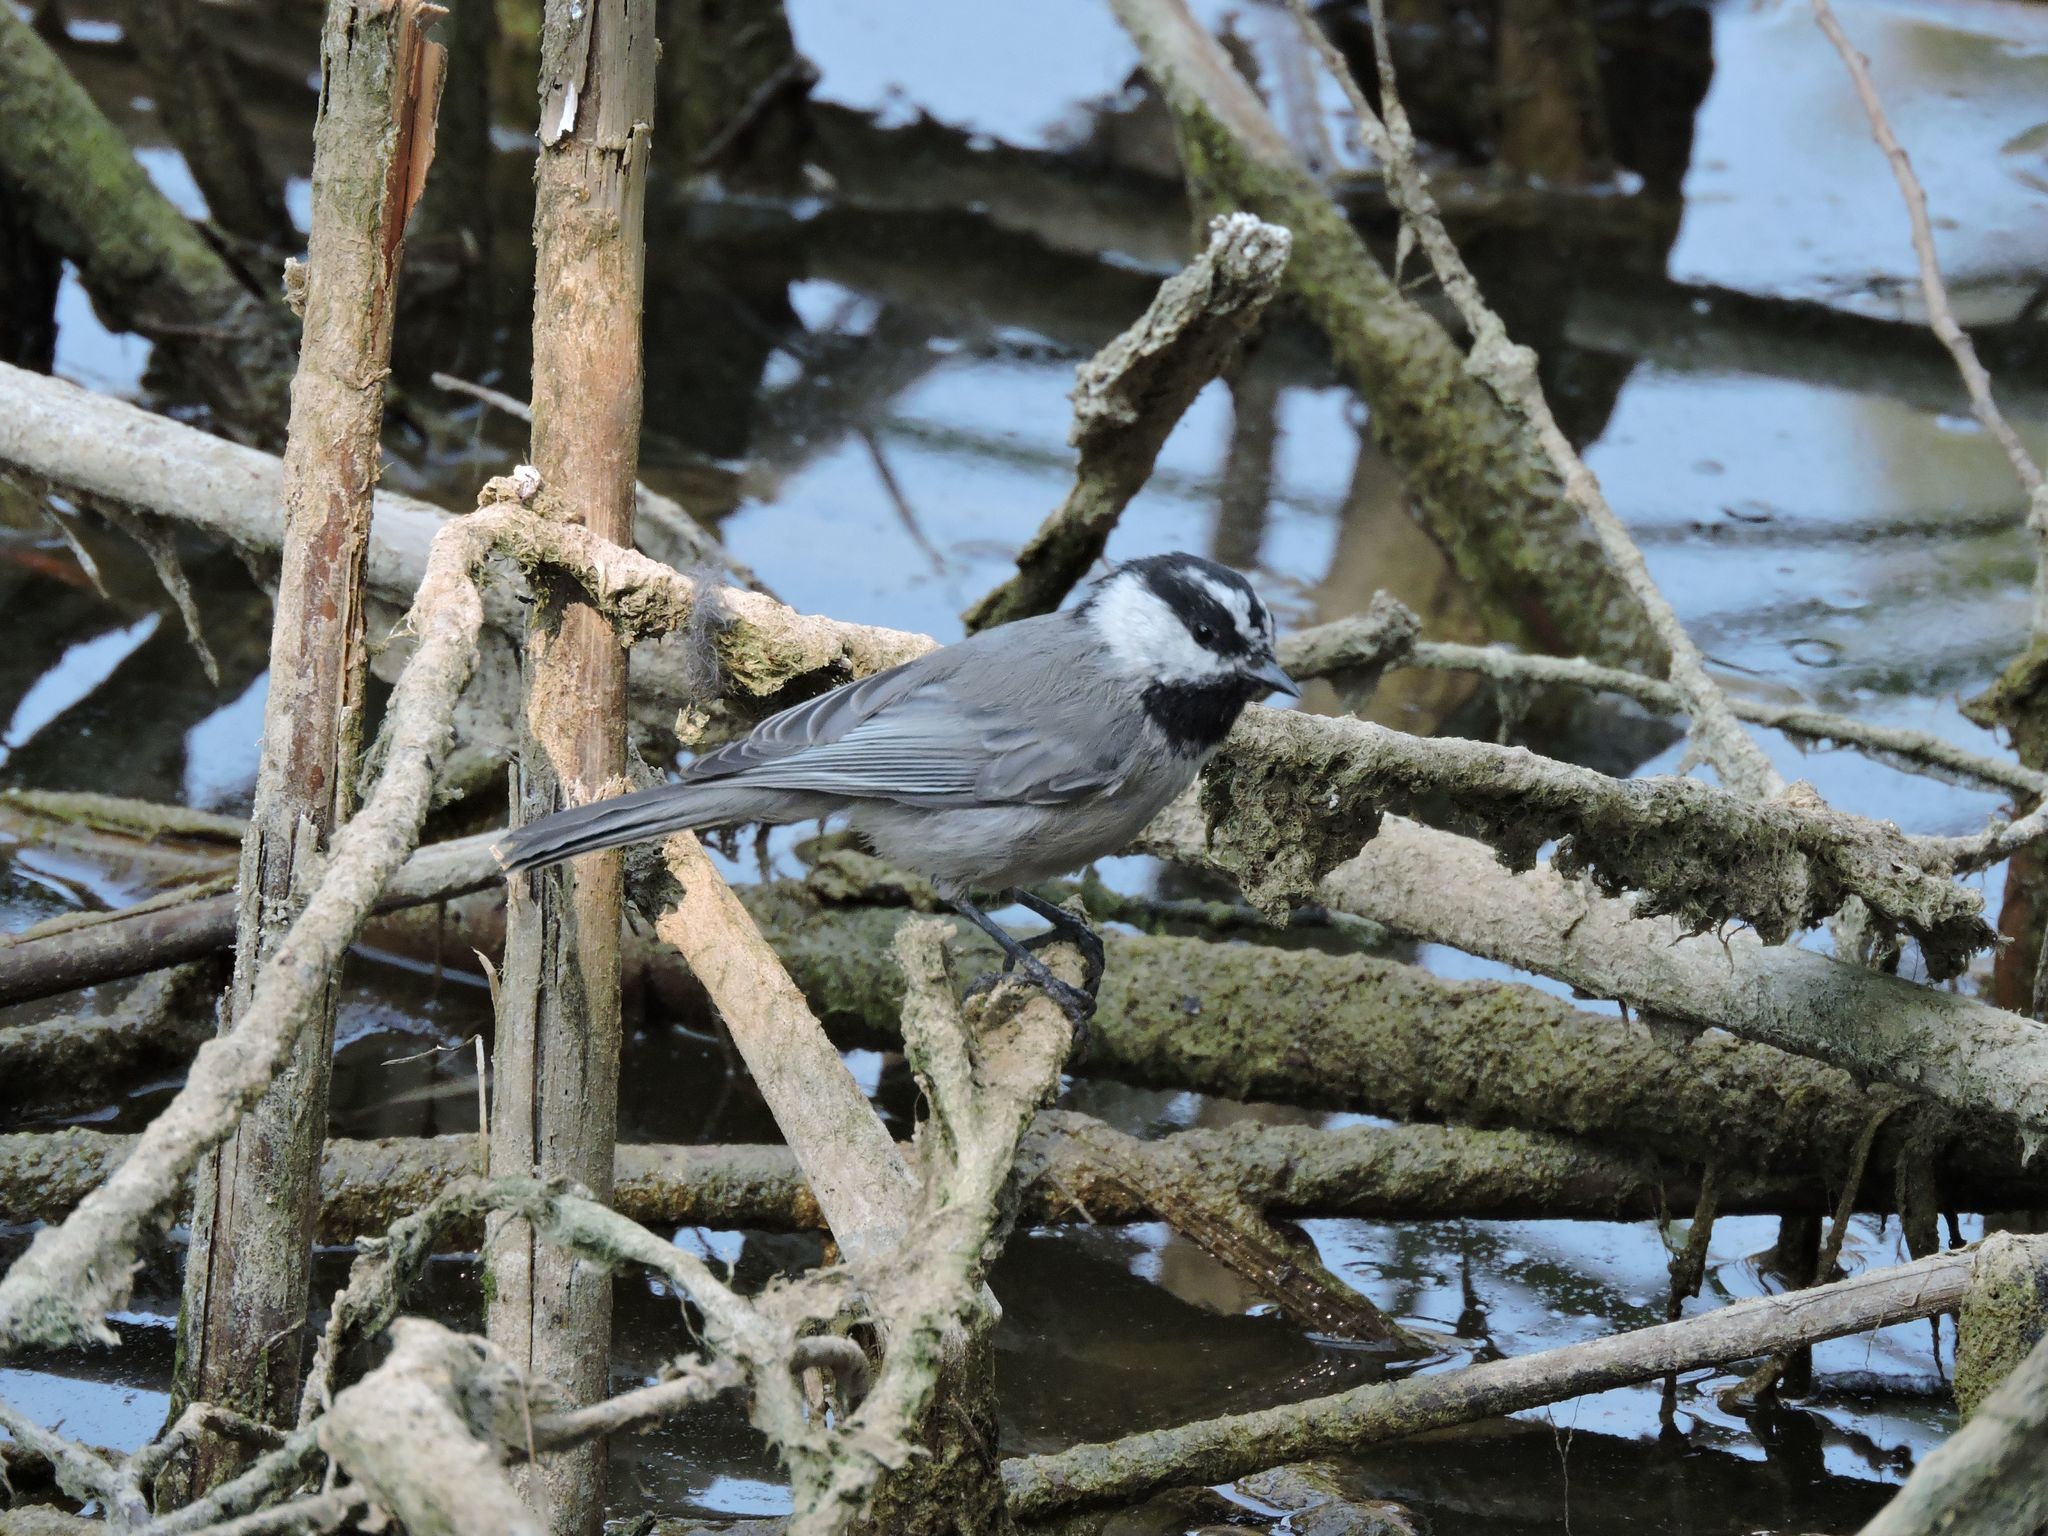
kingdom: Animalia
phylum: Chordata
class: Aves
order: Passeriformes
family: Paridae
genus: Poecile
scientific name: Poecile gambeli
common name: Mountain chickadee
